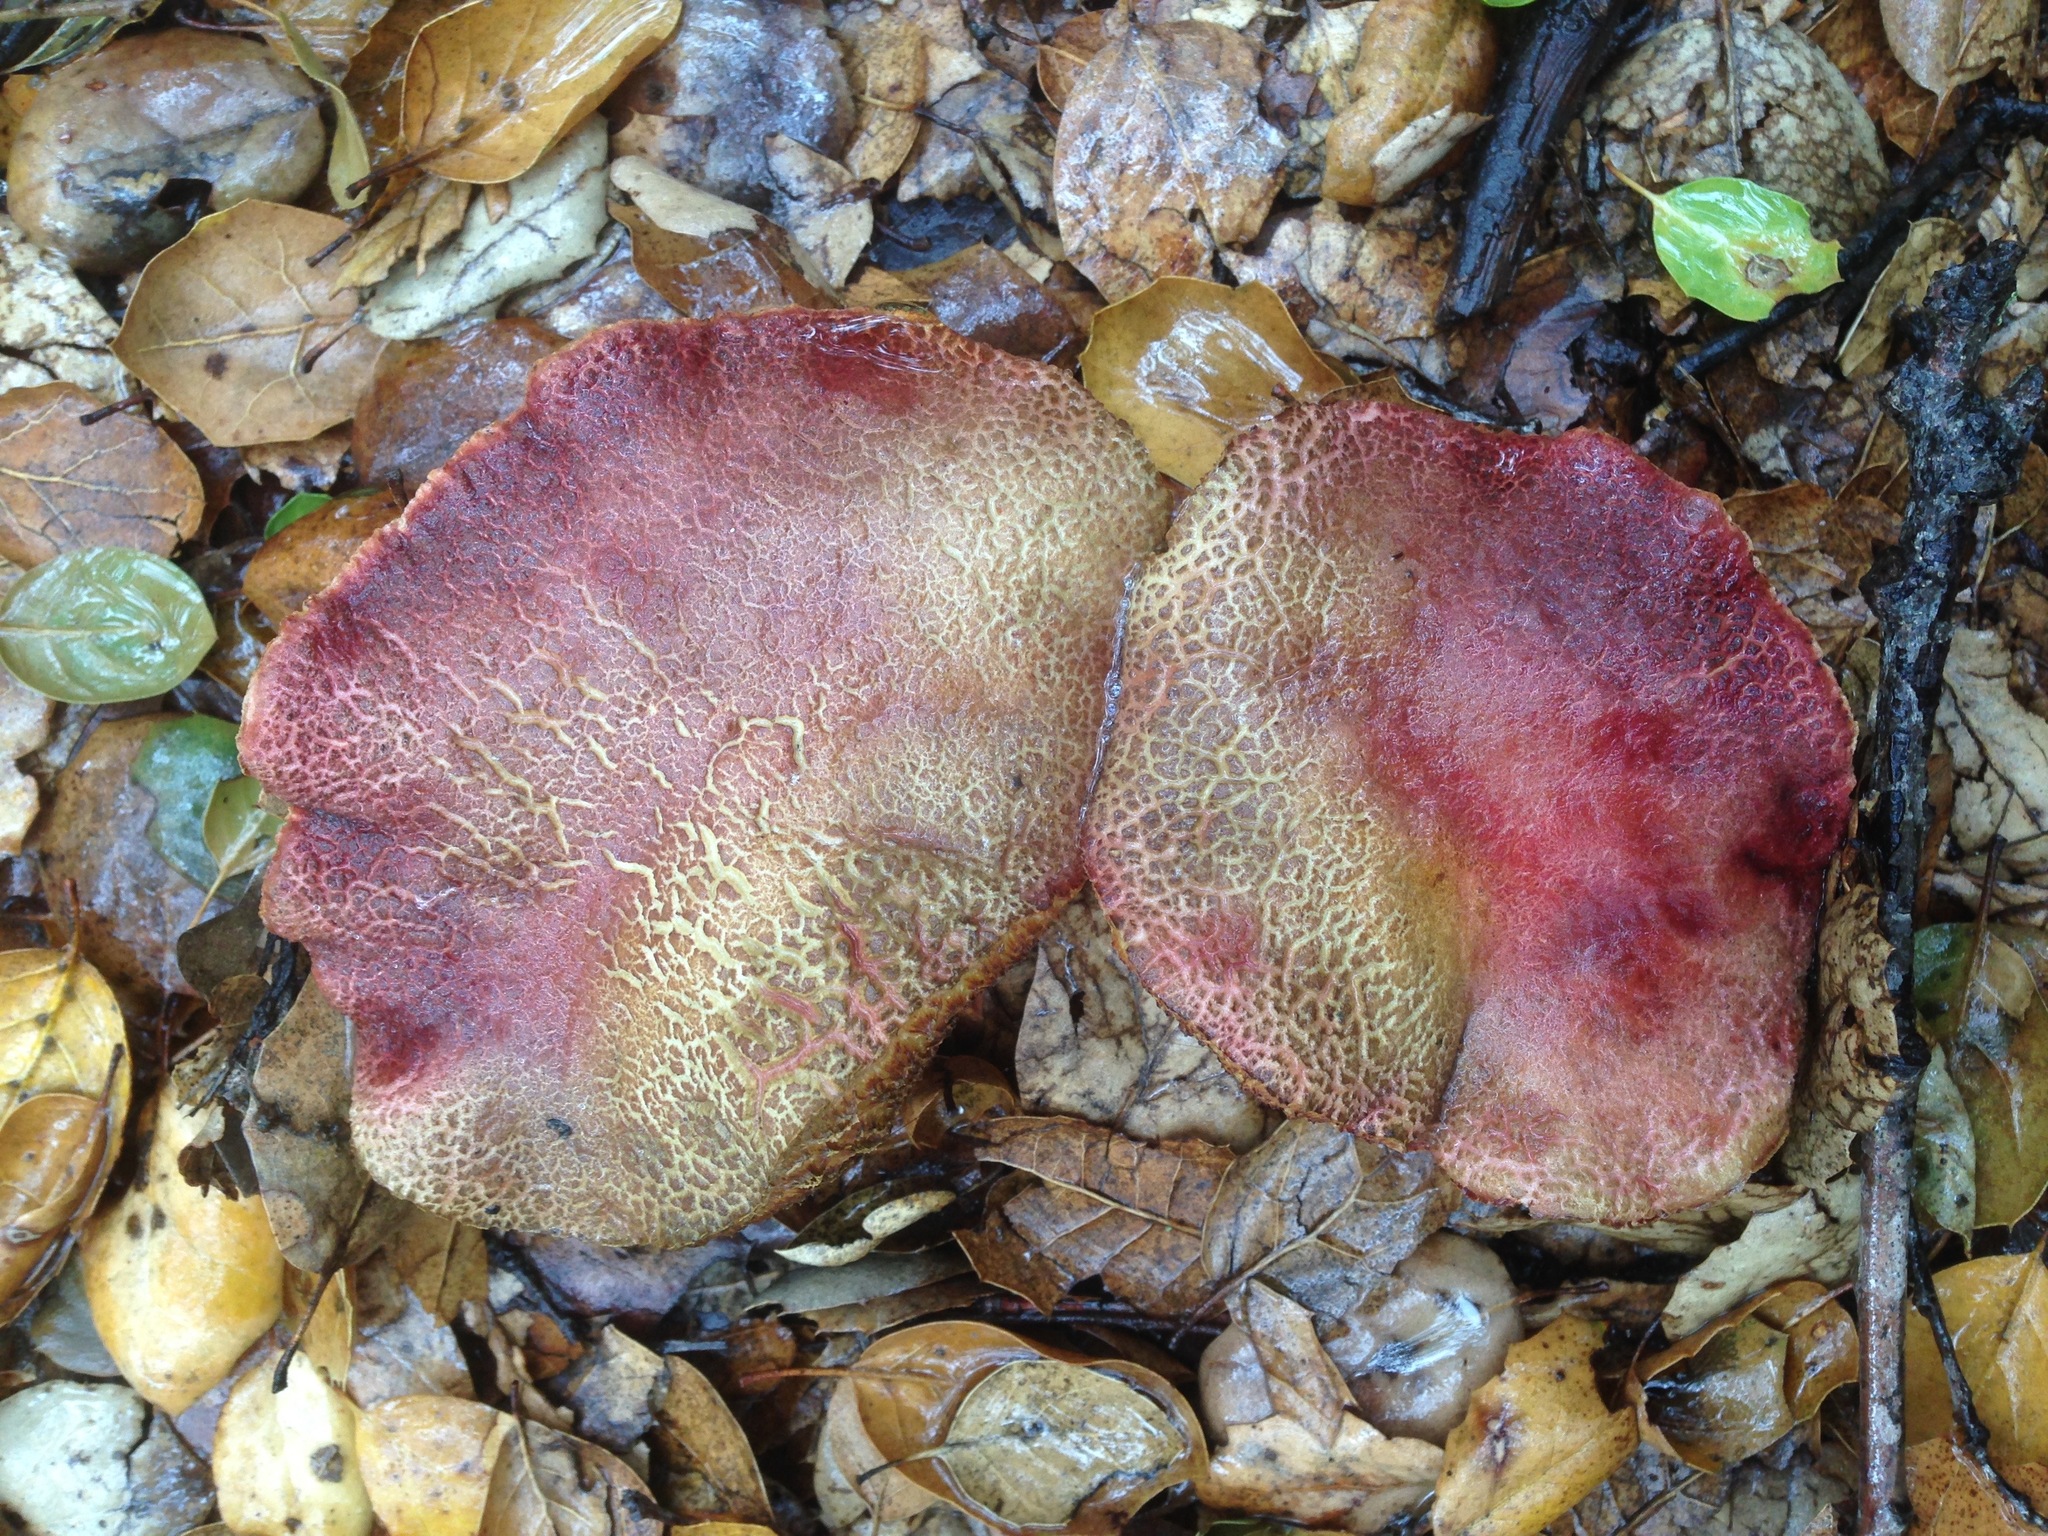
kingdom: Fungi
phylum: Basidiomycota
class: Agaricomycetes
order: Boletales
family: Boletaceae
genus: Xerocomellus
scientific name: Xerocomellus dryophilus
